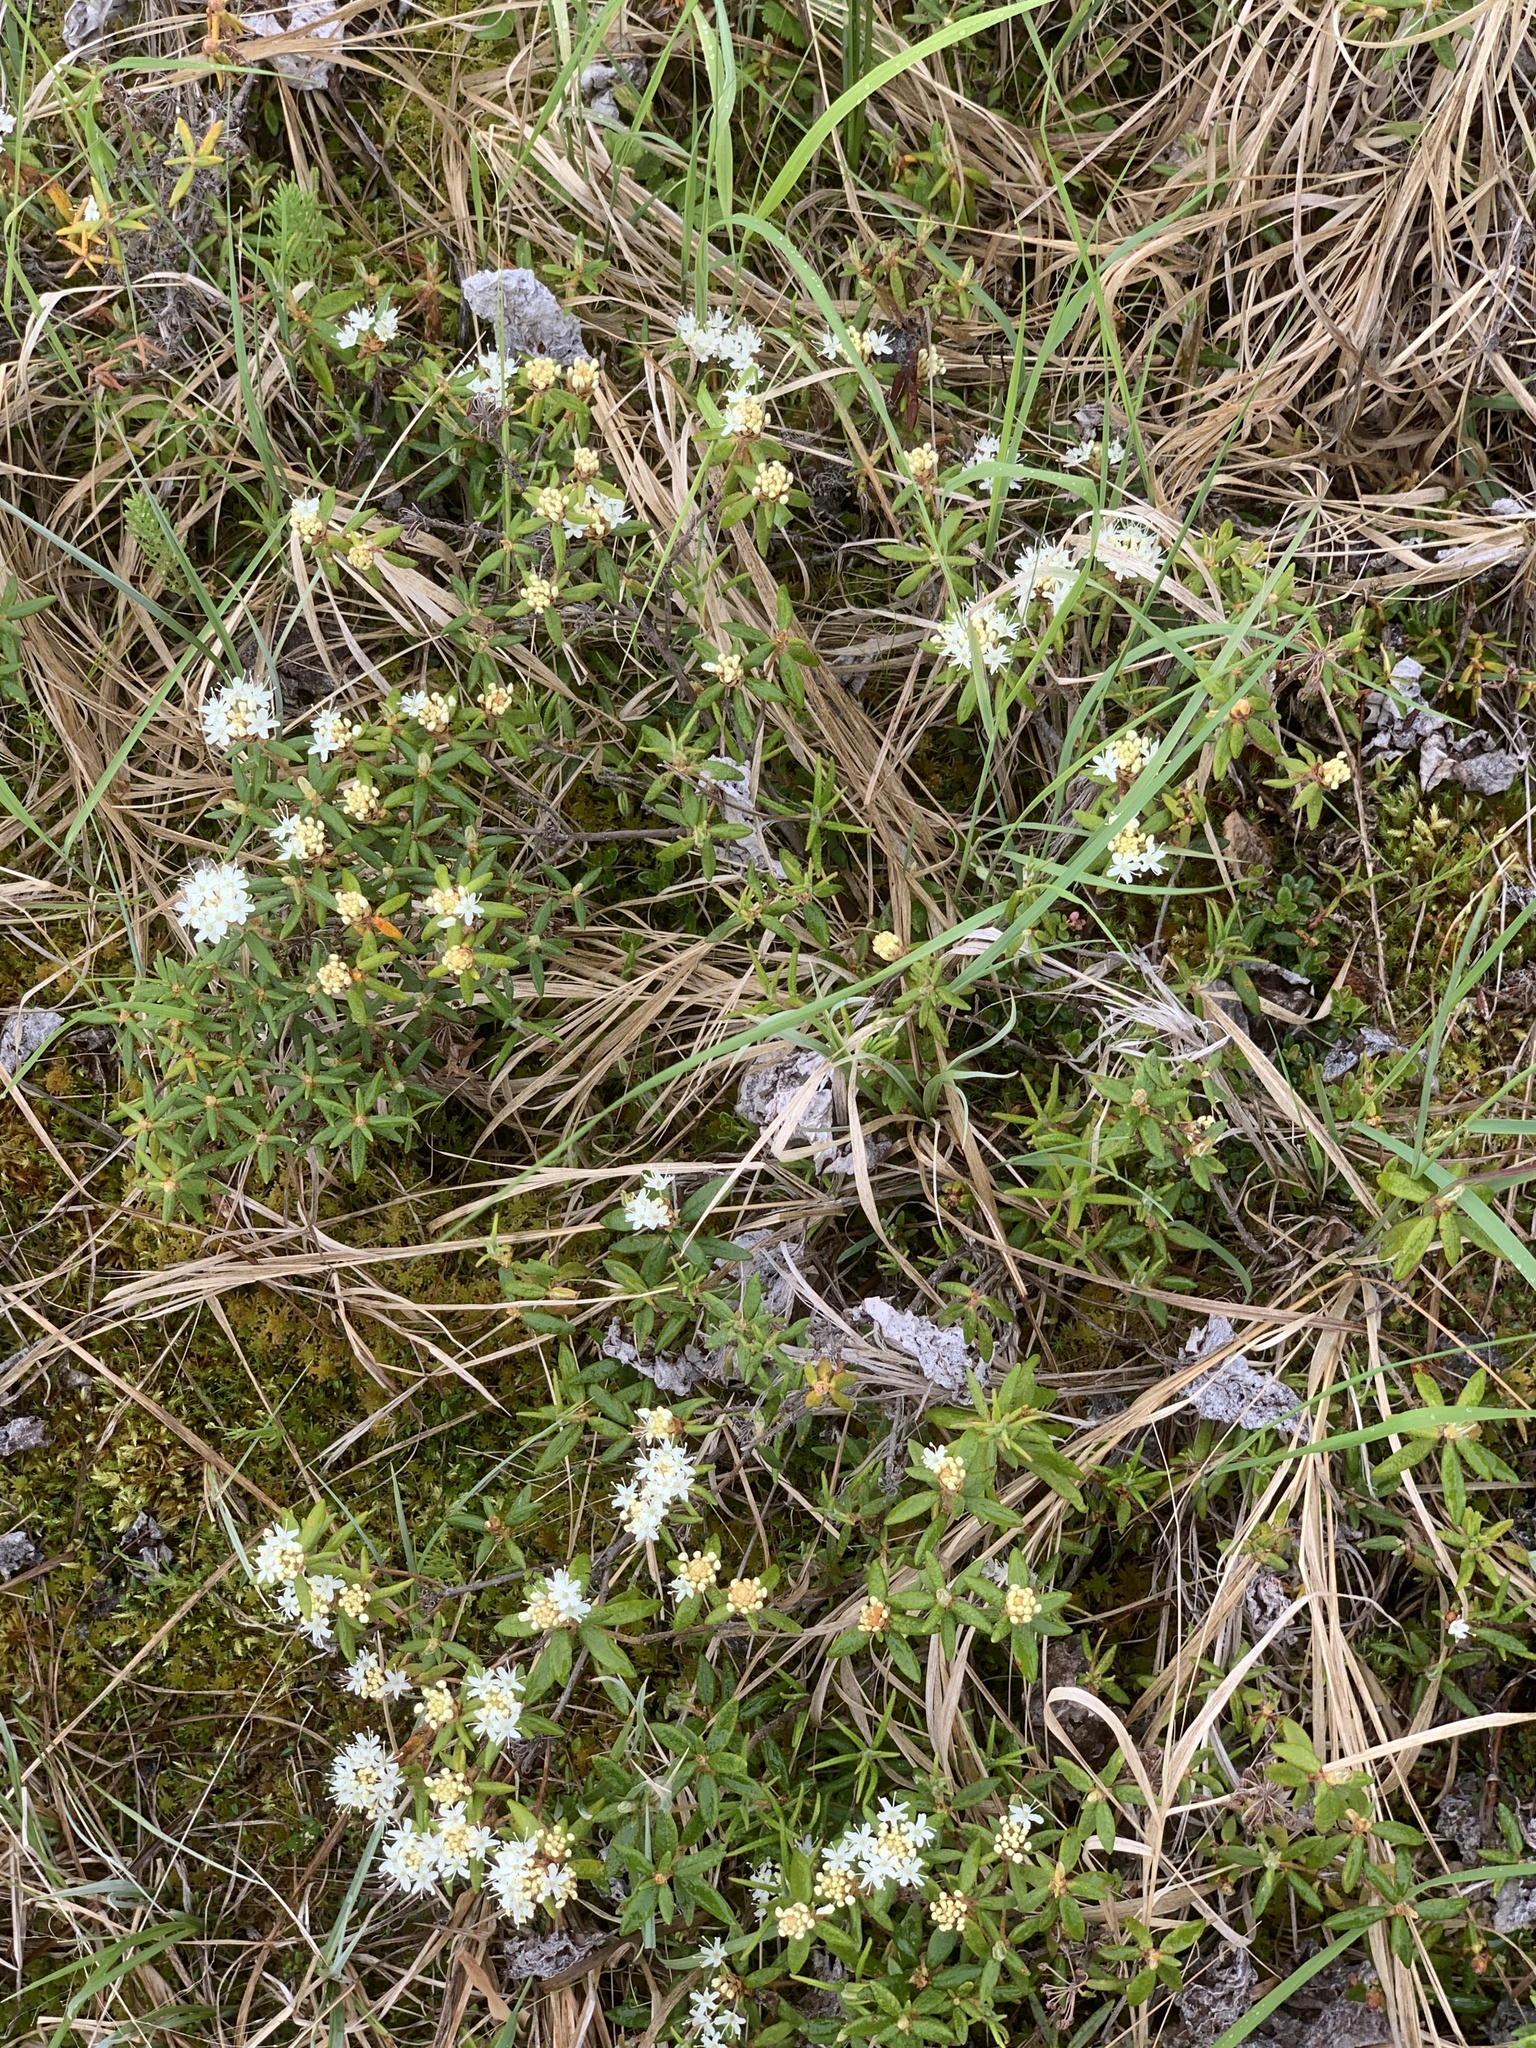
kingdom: Plantae
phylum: Tracheophyta
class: Magnoliopsida
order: Ericales
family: Ericaceae
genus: Rhododendron
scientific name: Rhododendron groenlandicum
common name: Bog labrador tea
